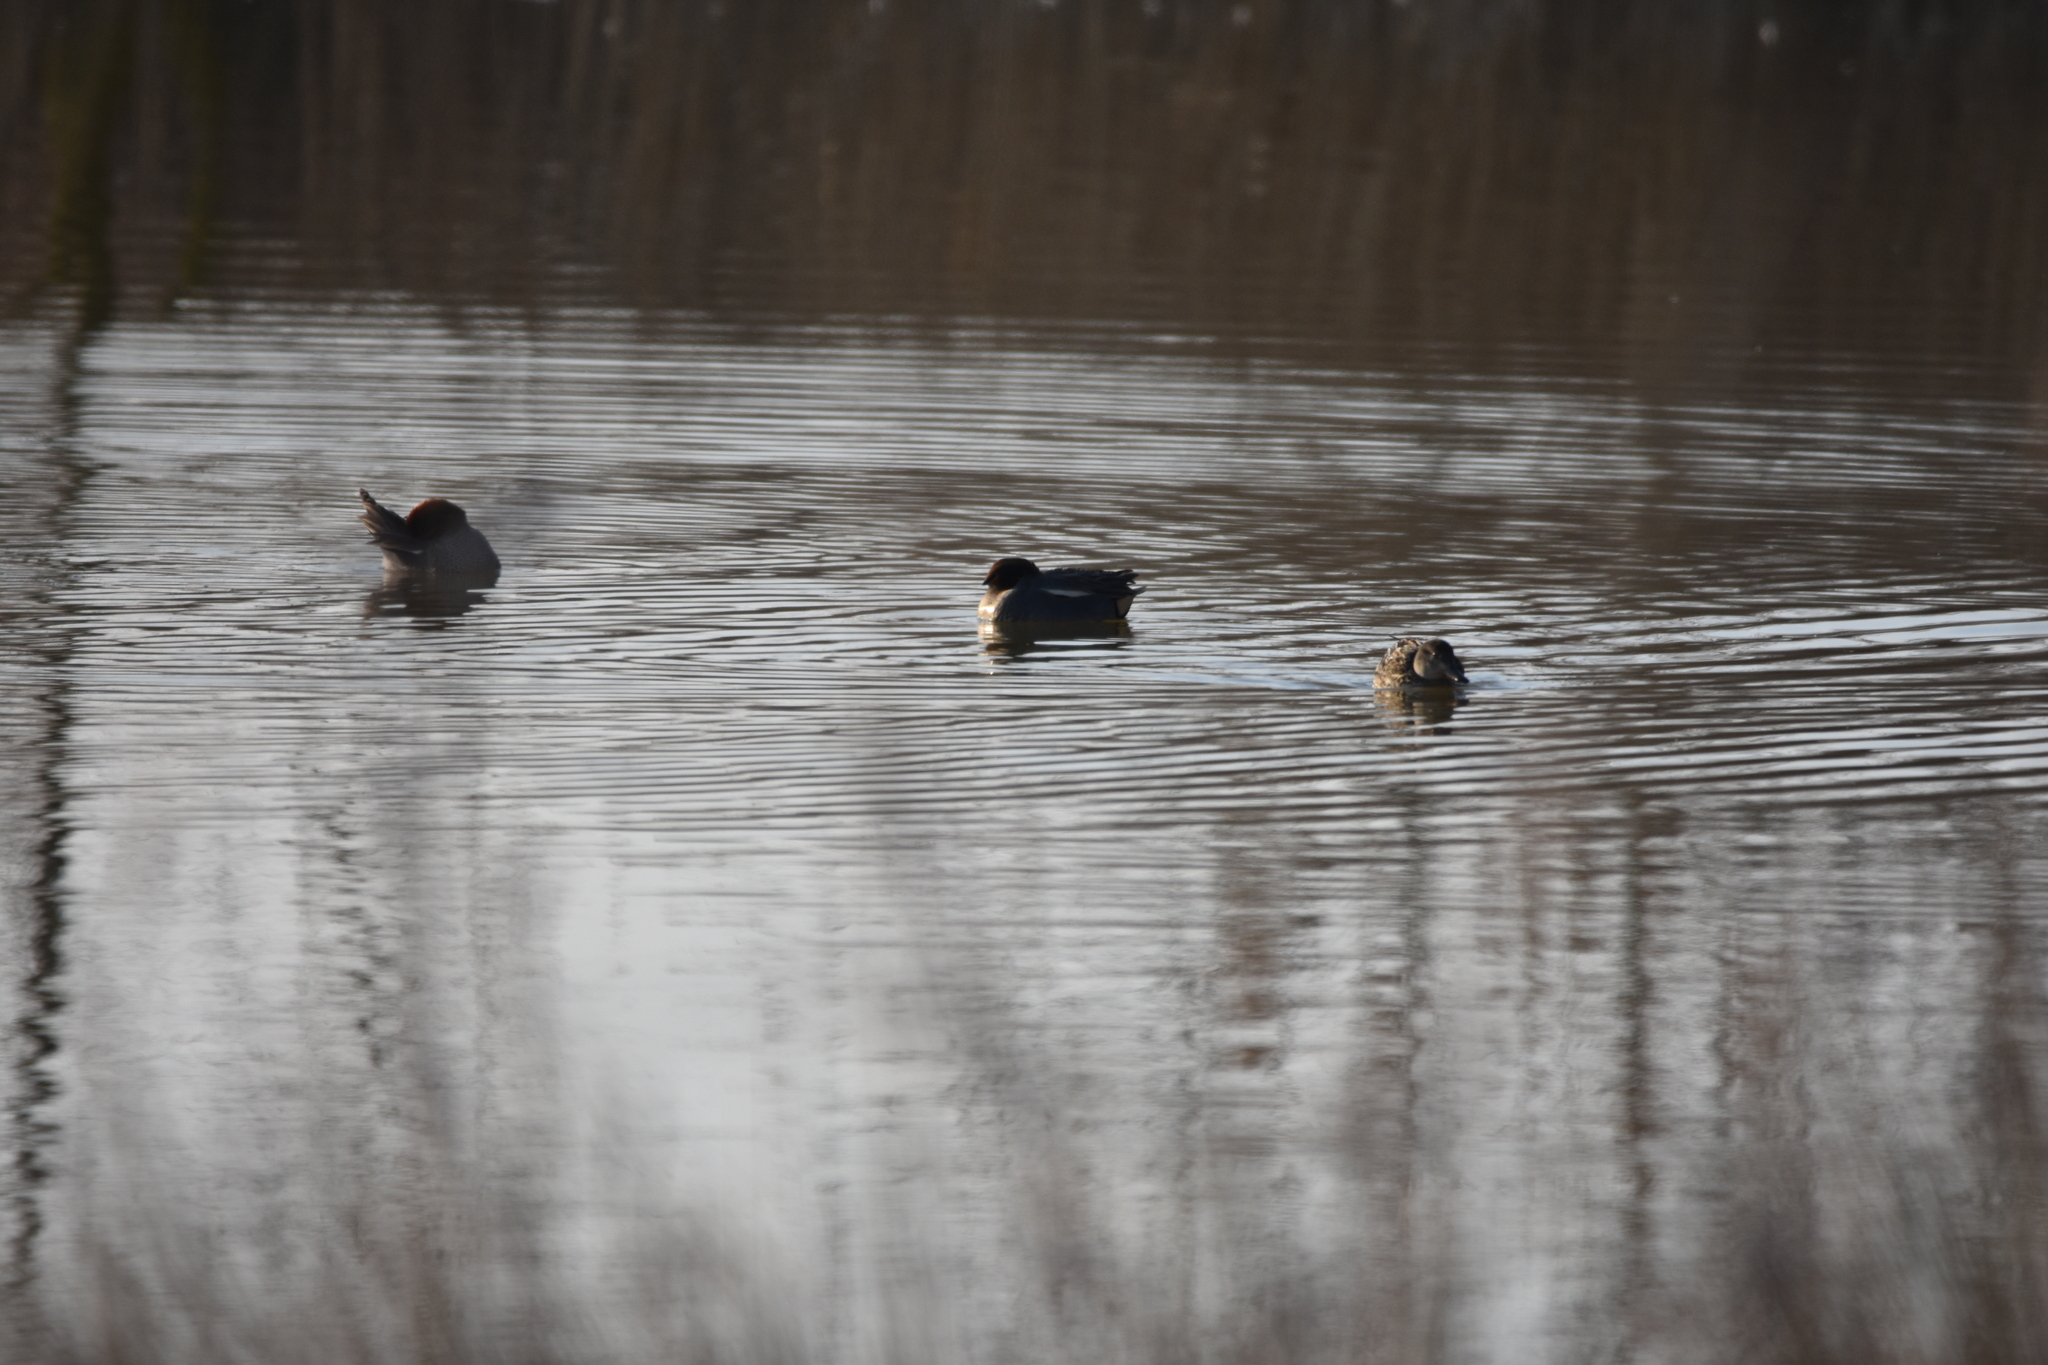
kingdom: Animalia
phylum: Chordata
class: Aves
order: Anseriformes
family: Anatidae
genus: Anas
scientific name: Anas crecca
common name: Eurasian teal
